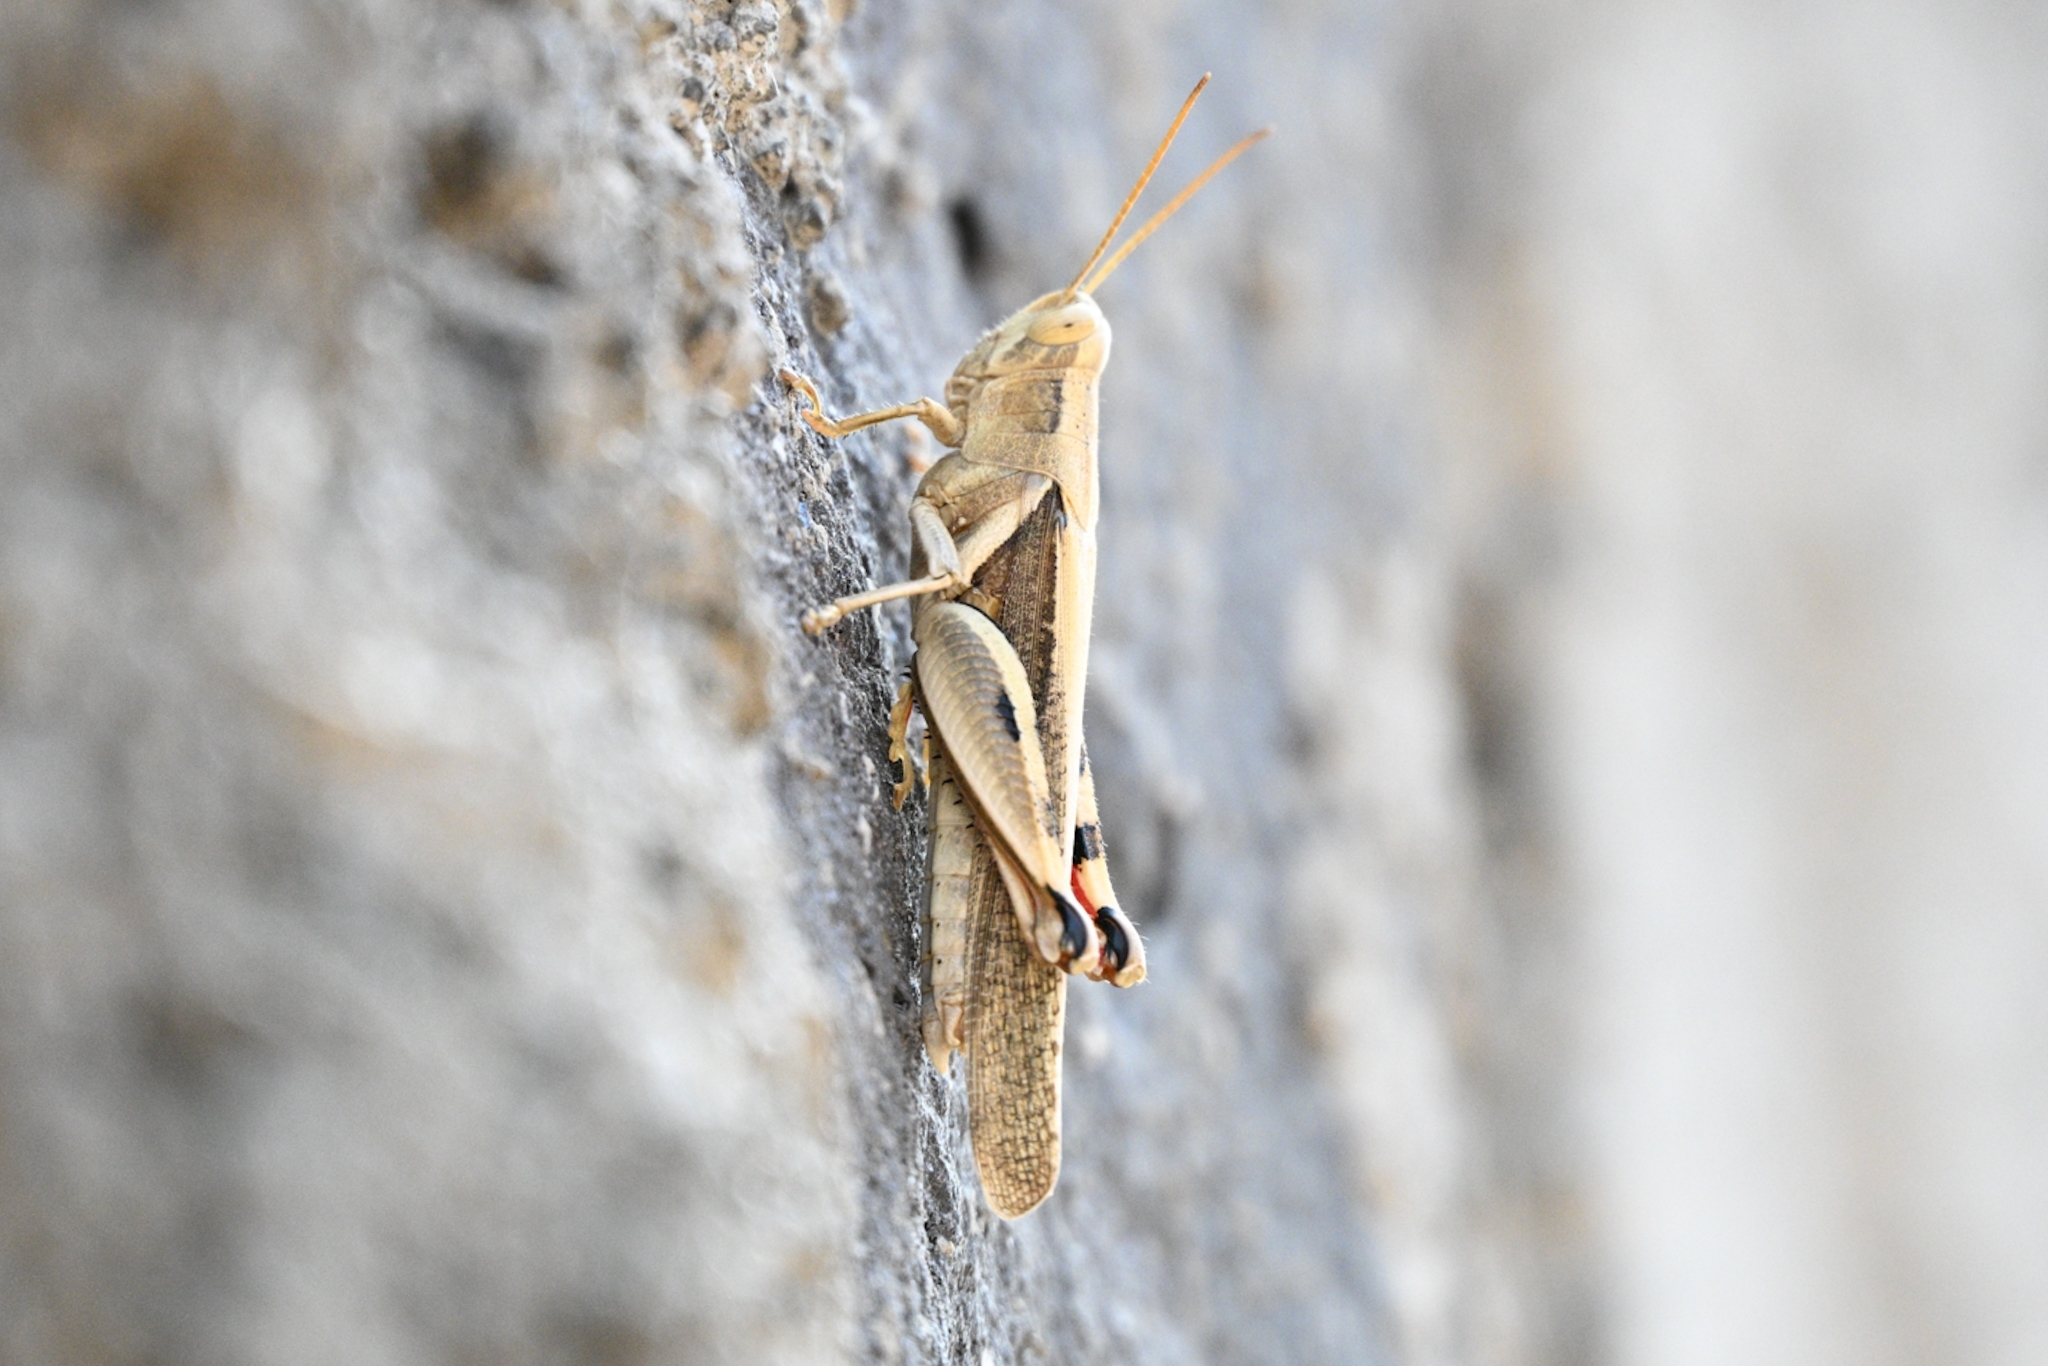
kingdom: Animalia
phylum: Arthropoda
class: Insecta
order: Orthoptera
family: Acrididae
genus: Diabolocatantops
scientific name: Diabolocatantops axillaris
